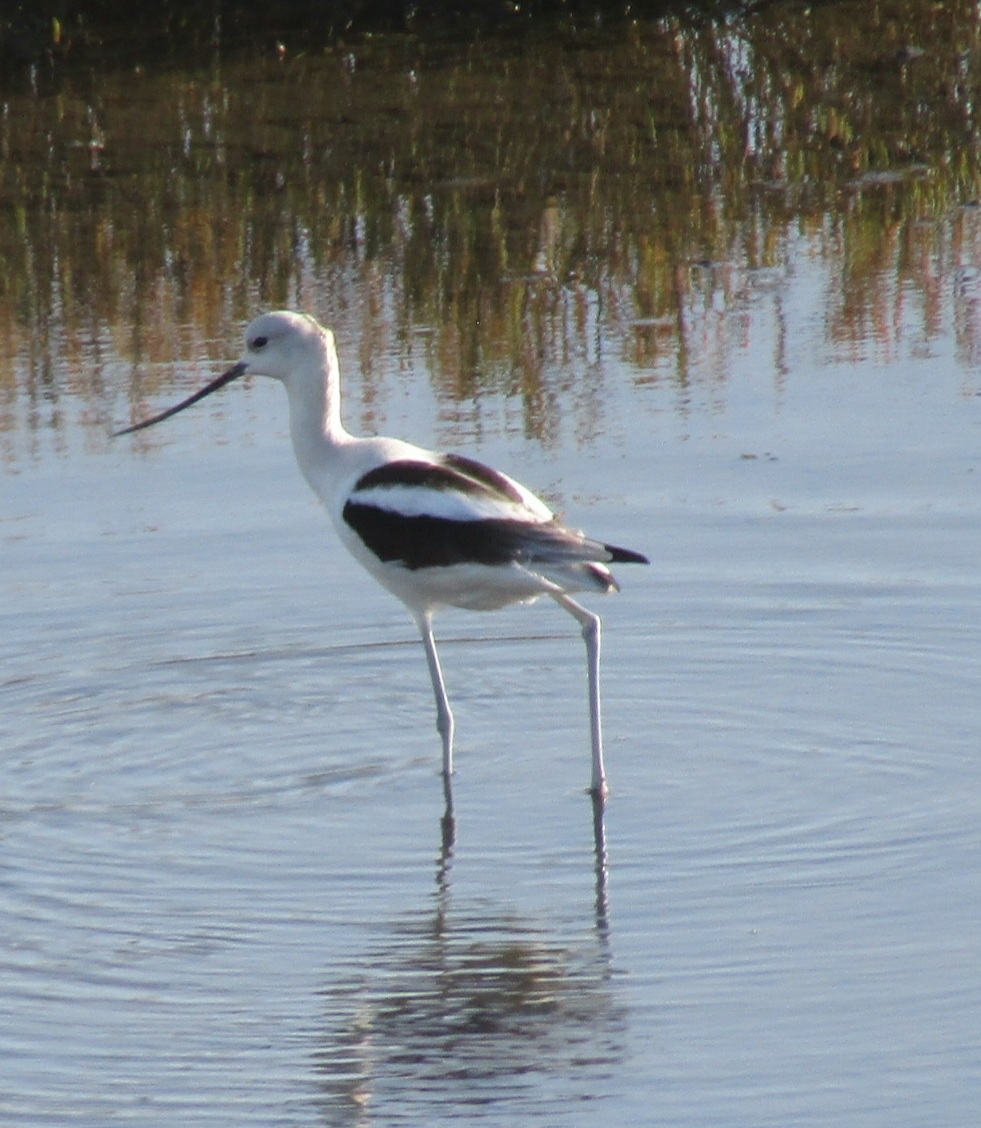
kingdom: Animalia
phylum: Chordata
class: Aves
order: Charadriiformes
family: Recurvirostridae
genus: Recurvirostra
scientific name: Recurvirostra americana
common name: American avocet
